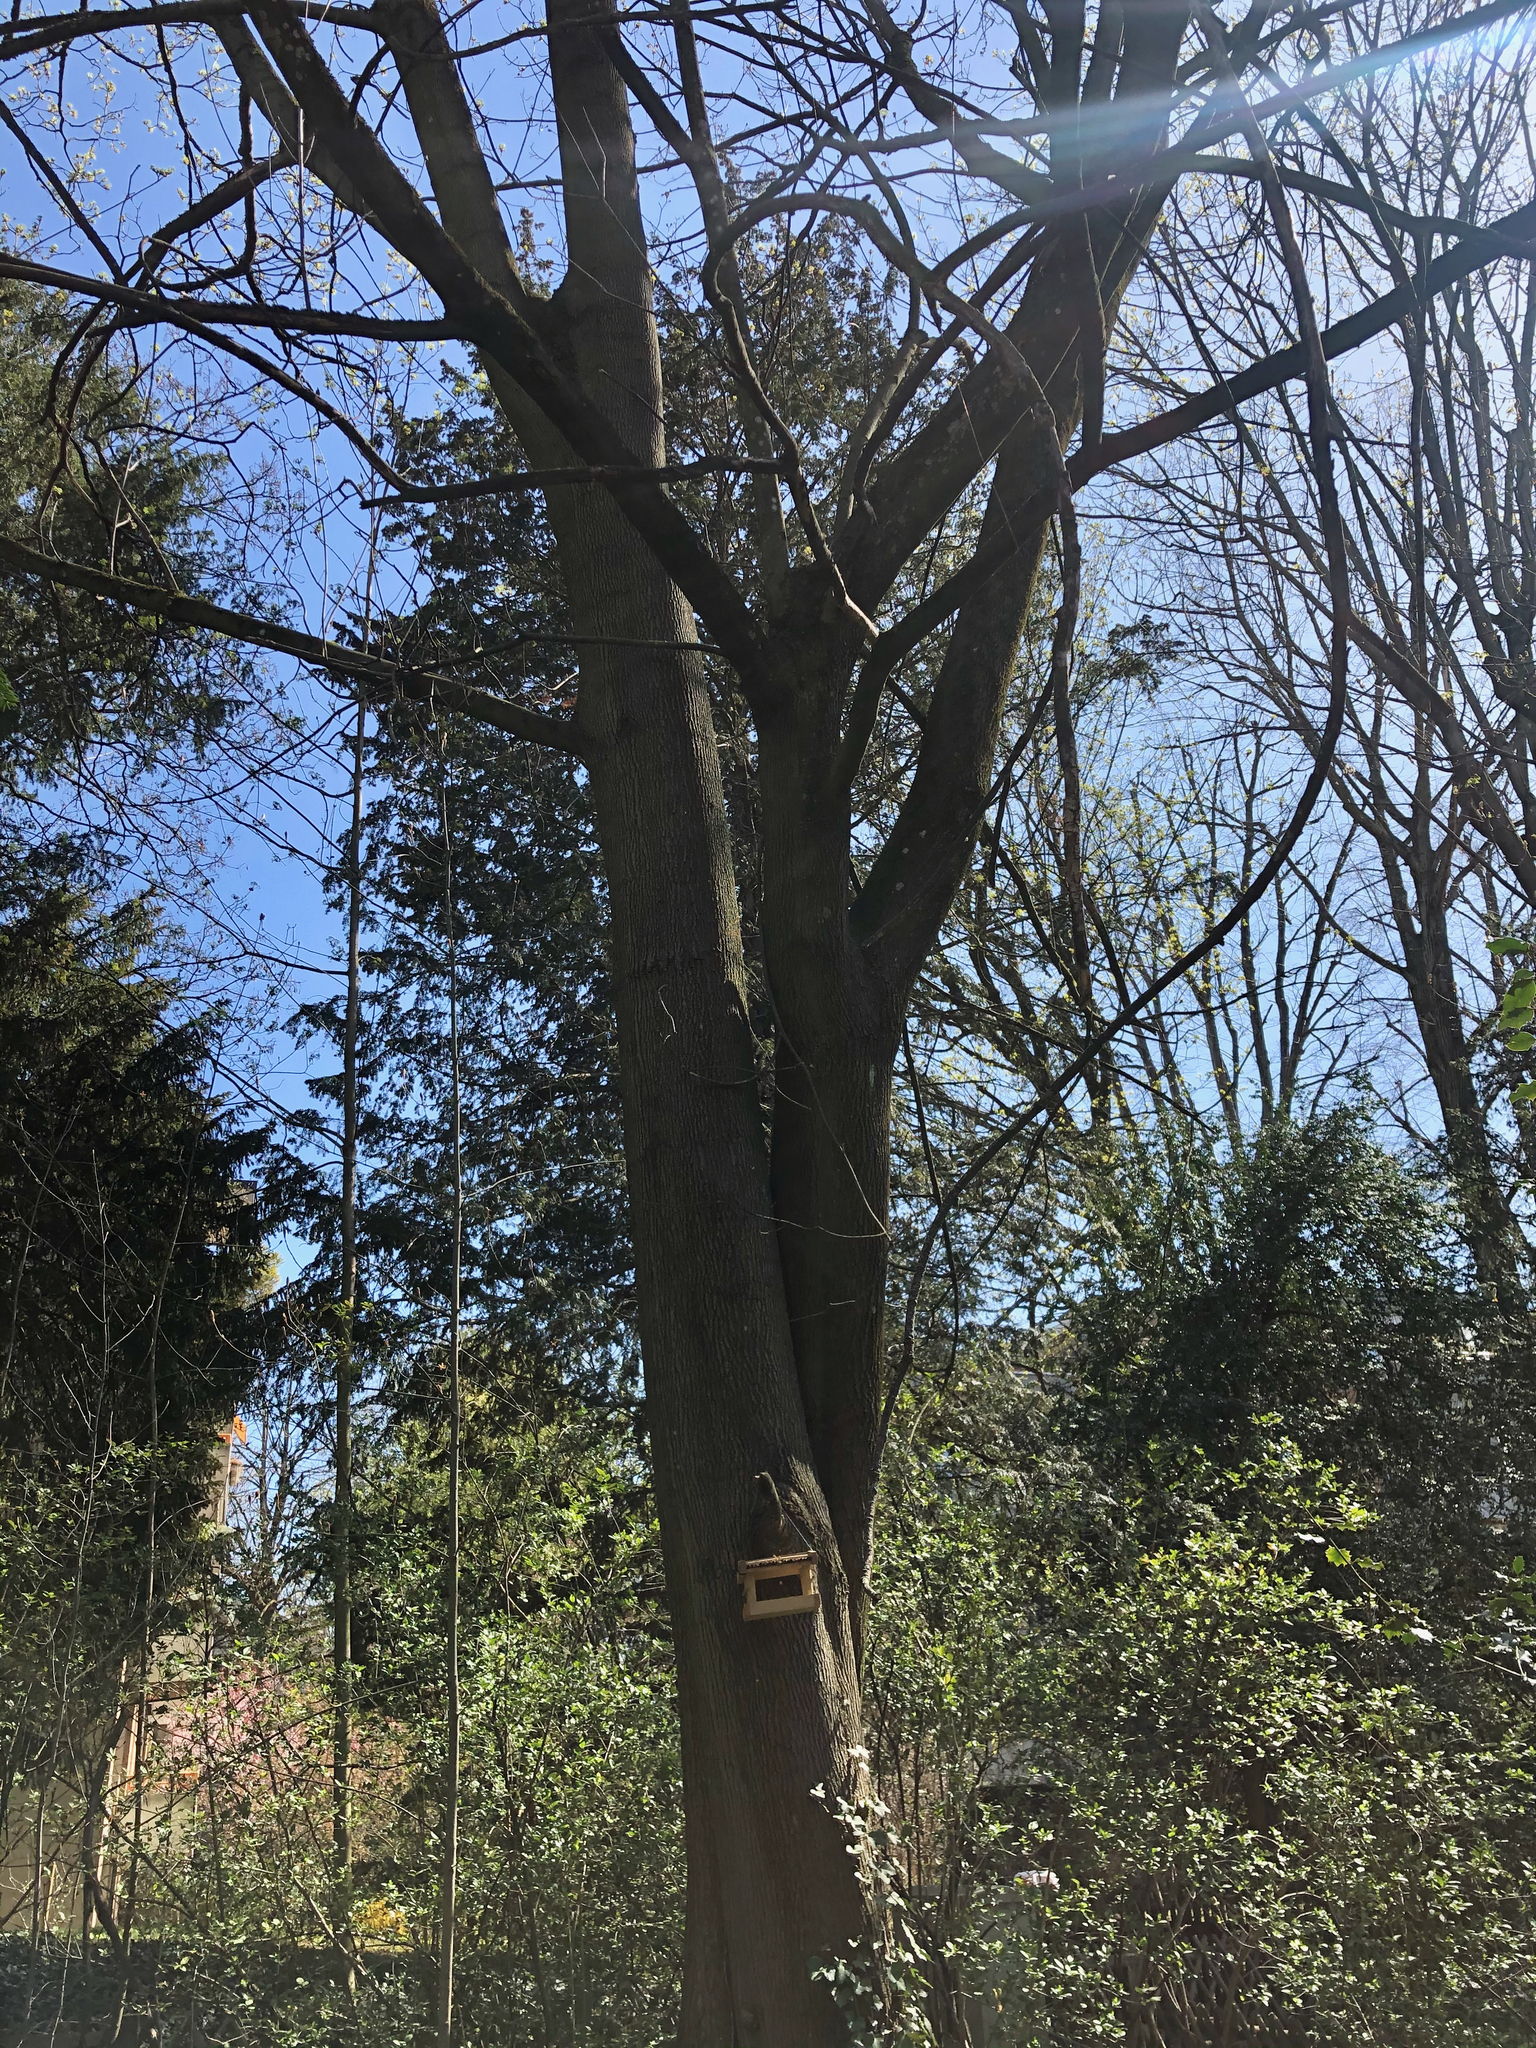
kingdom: Plantae
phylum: Tracheophyta
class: Magnoliopsida
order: Sapindales
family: Sapindaceae
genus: Acer
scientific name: Acer platanoides
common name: Norway maple
